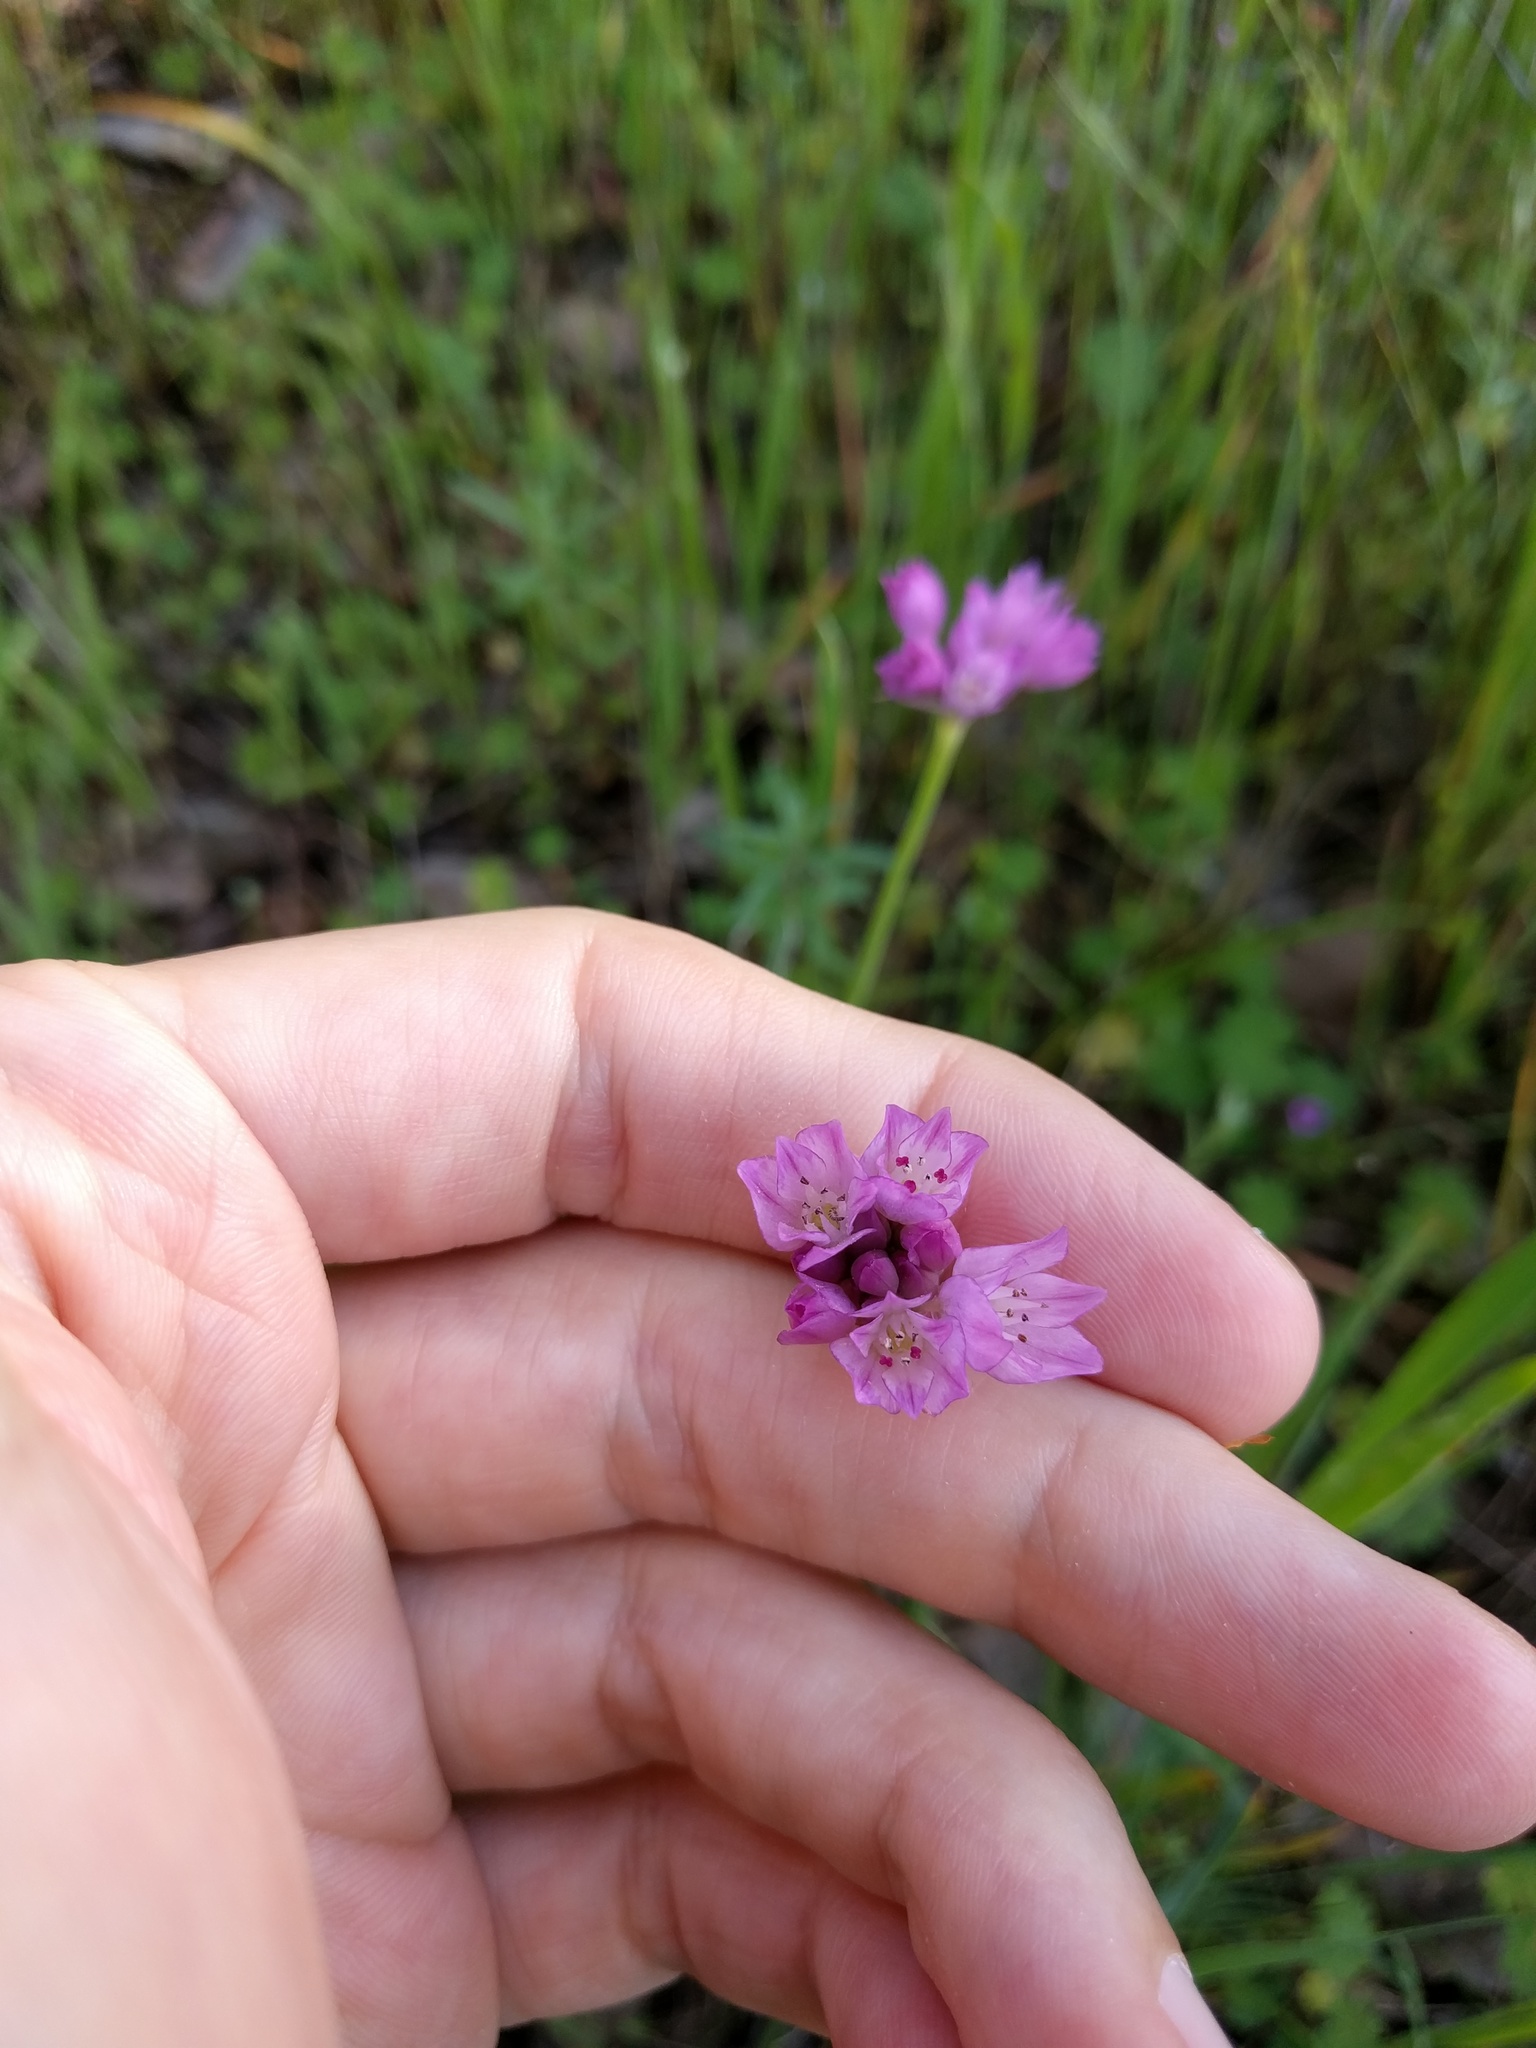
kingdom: Plantae
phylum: Tracheophyta
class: Liliopsida
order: Asparagales
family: Amaryllidaceae
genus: Allium
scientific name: Allium serra
